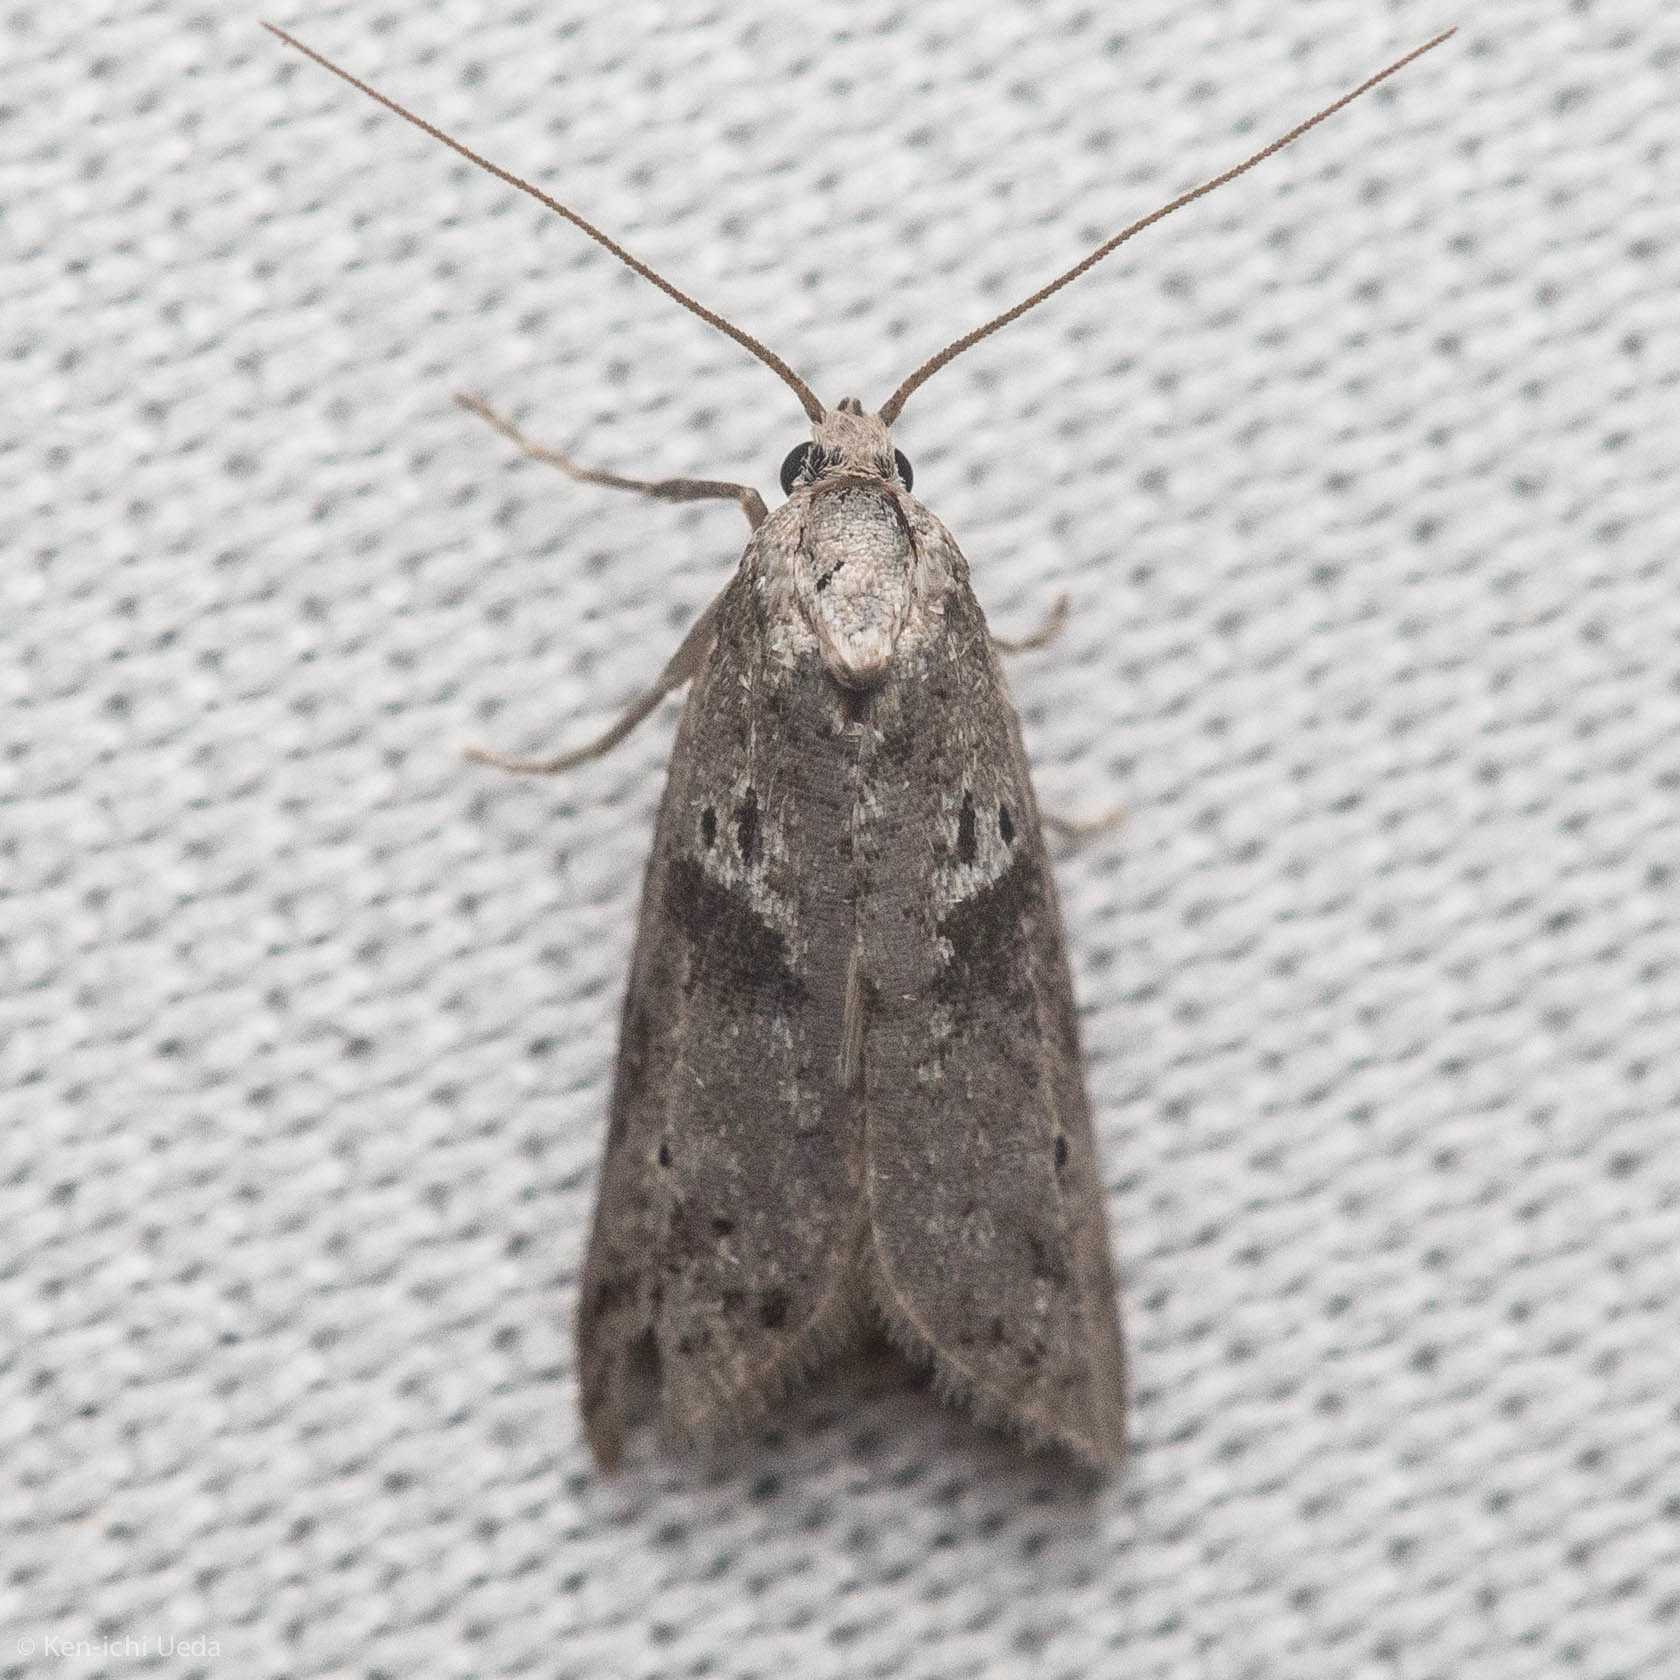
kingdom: Animalia
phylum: Arthropoda
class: Insecta
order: Lepidoptera
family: Copromorphidae
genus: Lotisma
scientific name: Lotisma trigonana
